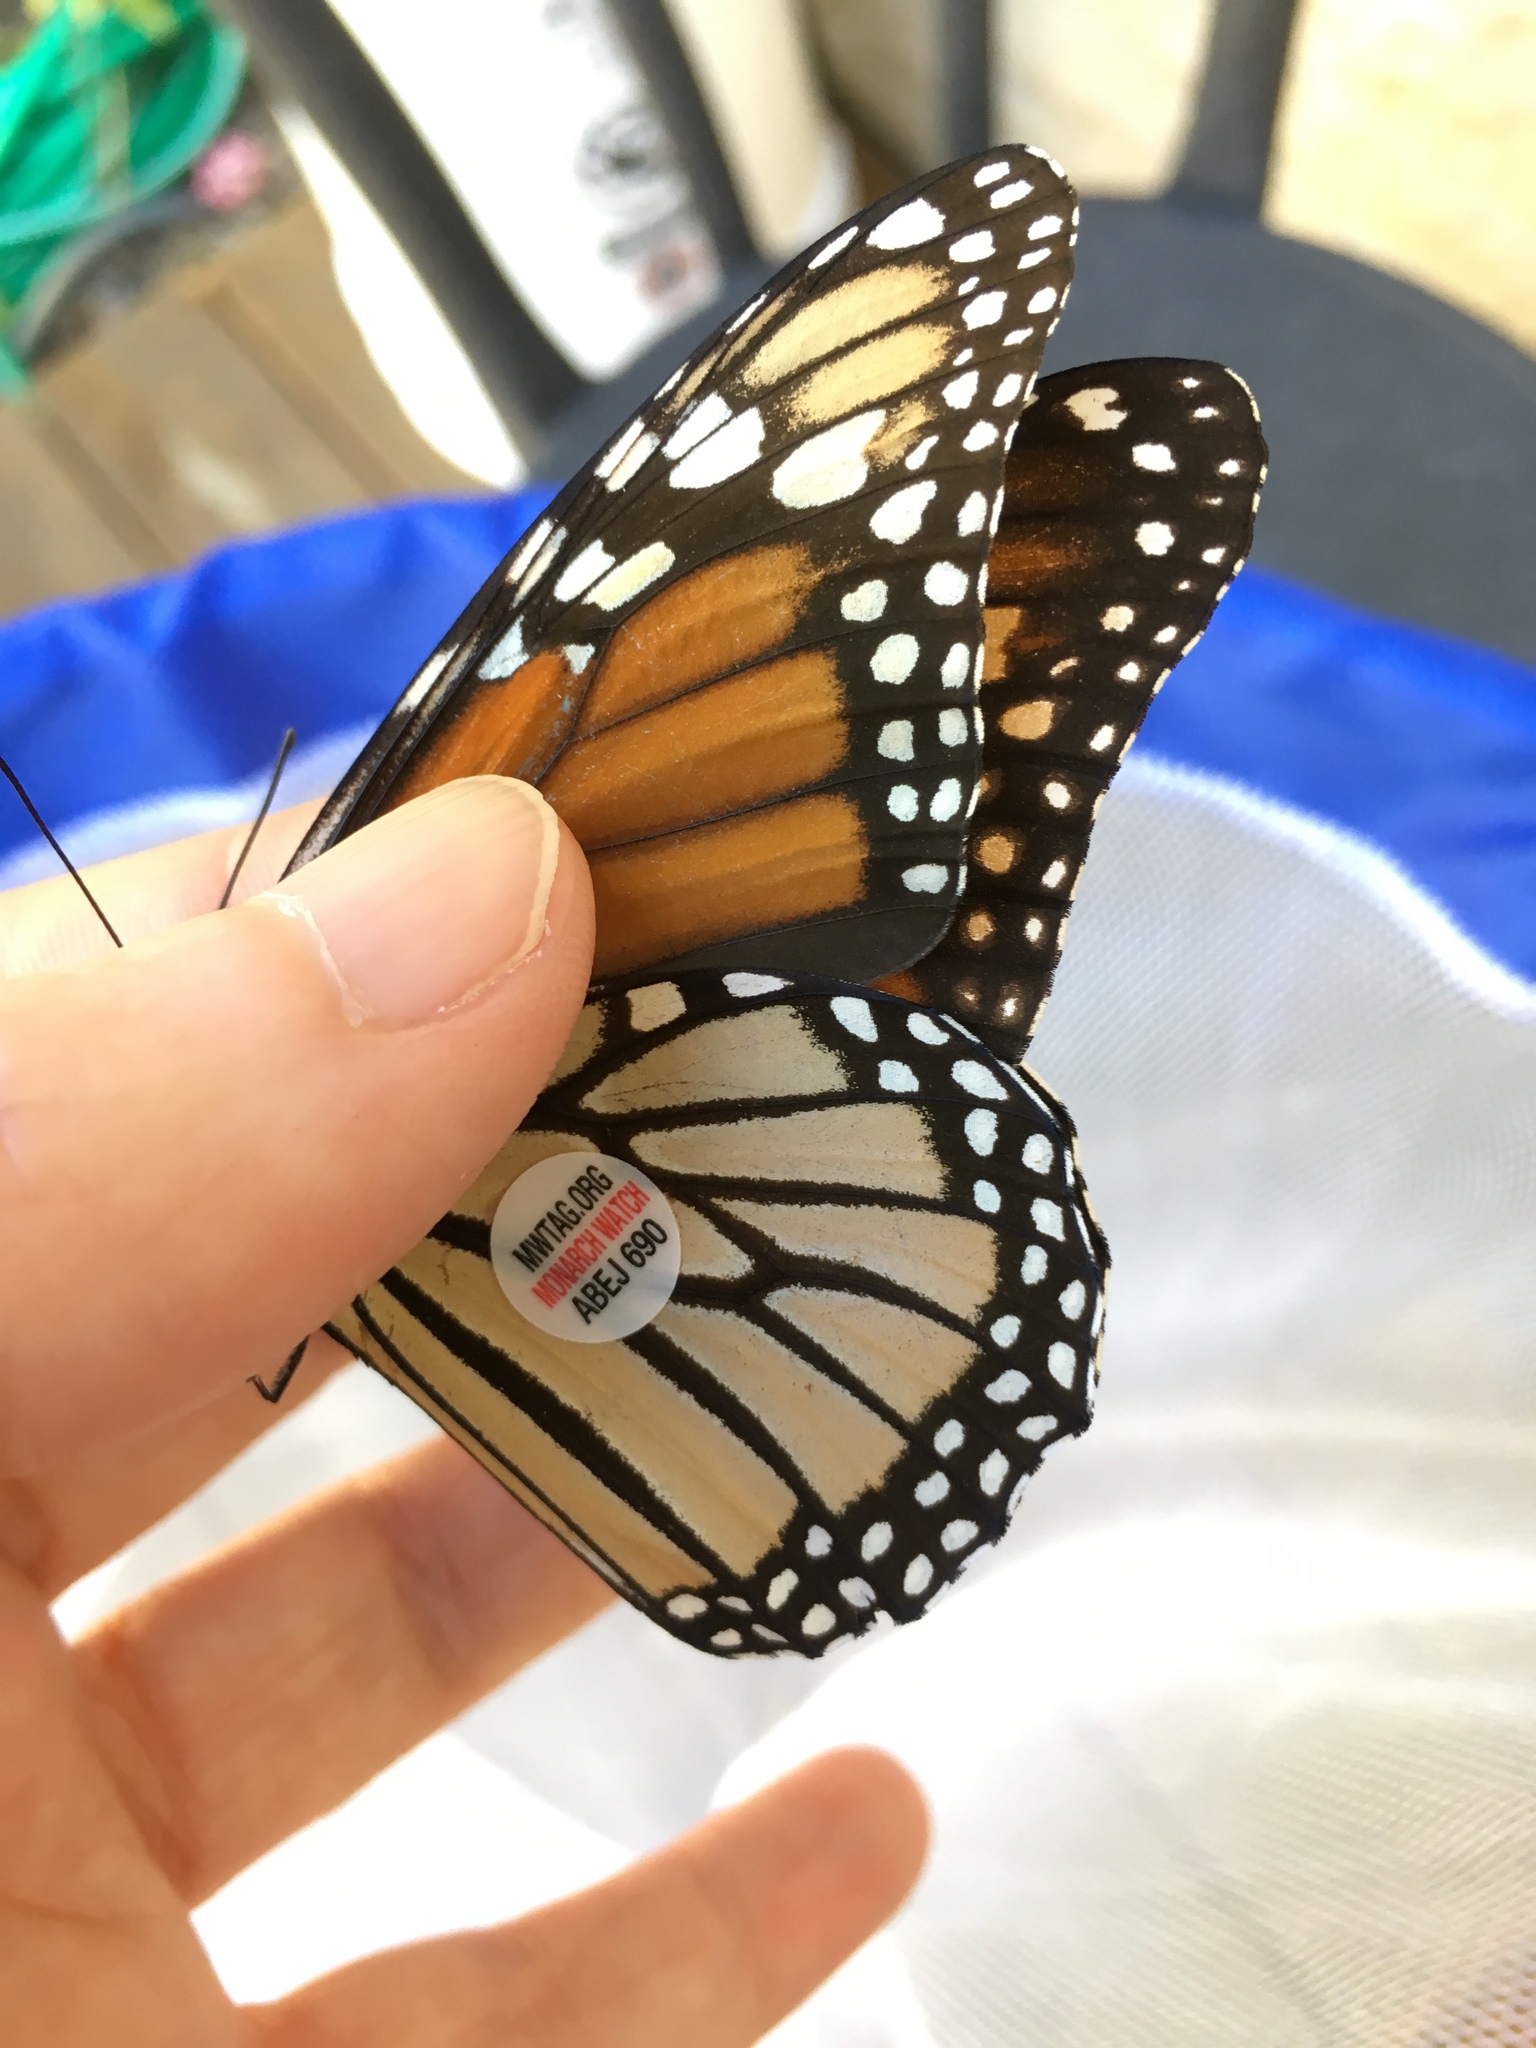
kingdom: Animalia
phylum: Arthropoda
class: Insecta
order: Lepidoptera
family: Nymphalidae
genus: Danaus
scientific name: Danaus plexippus
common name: Monarch
